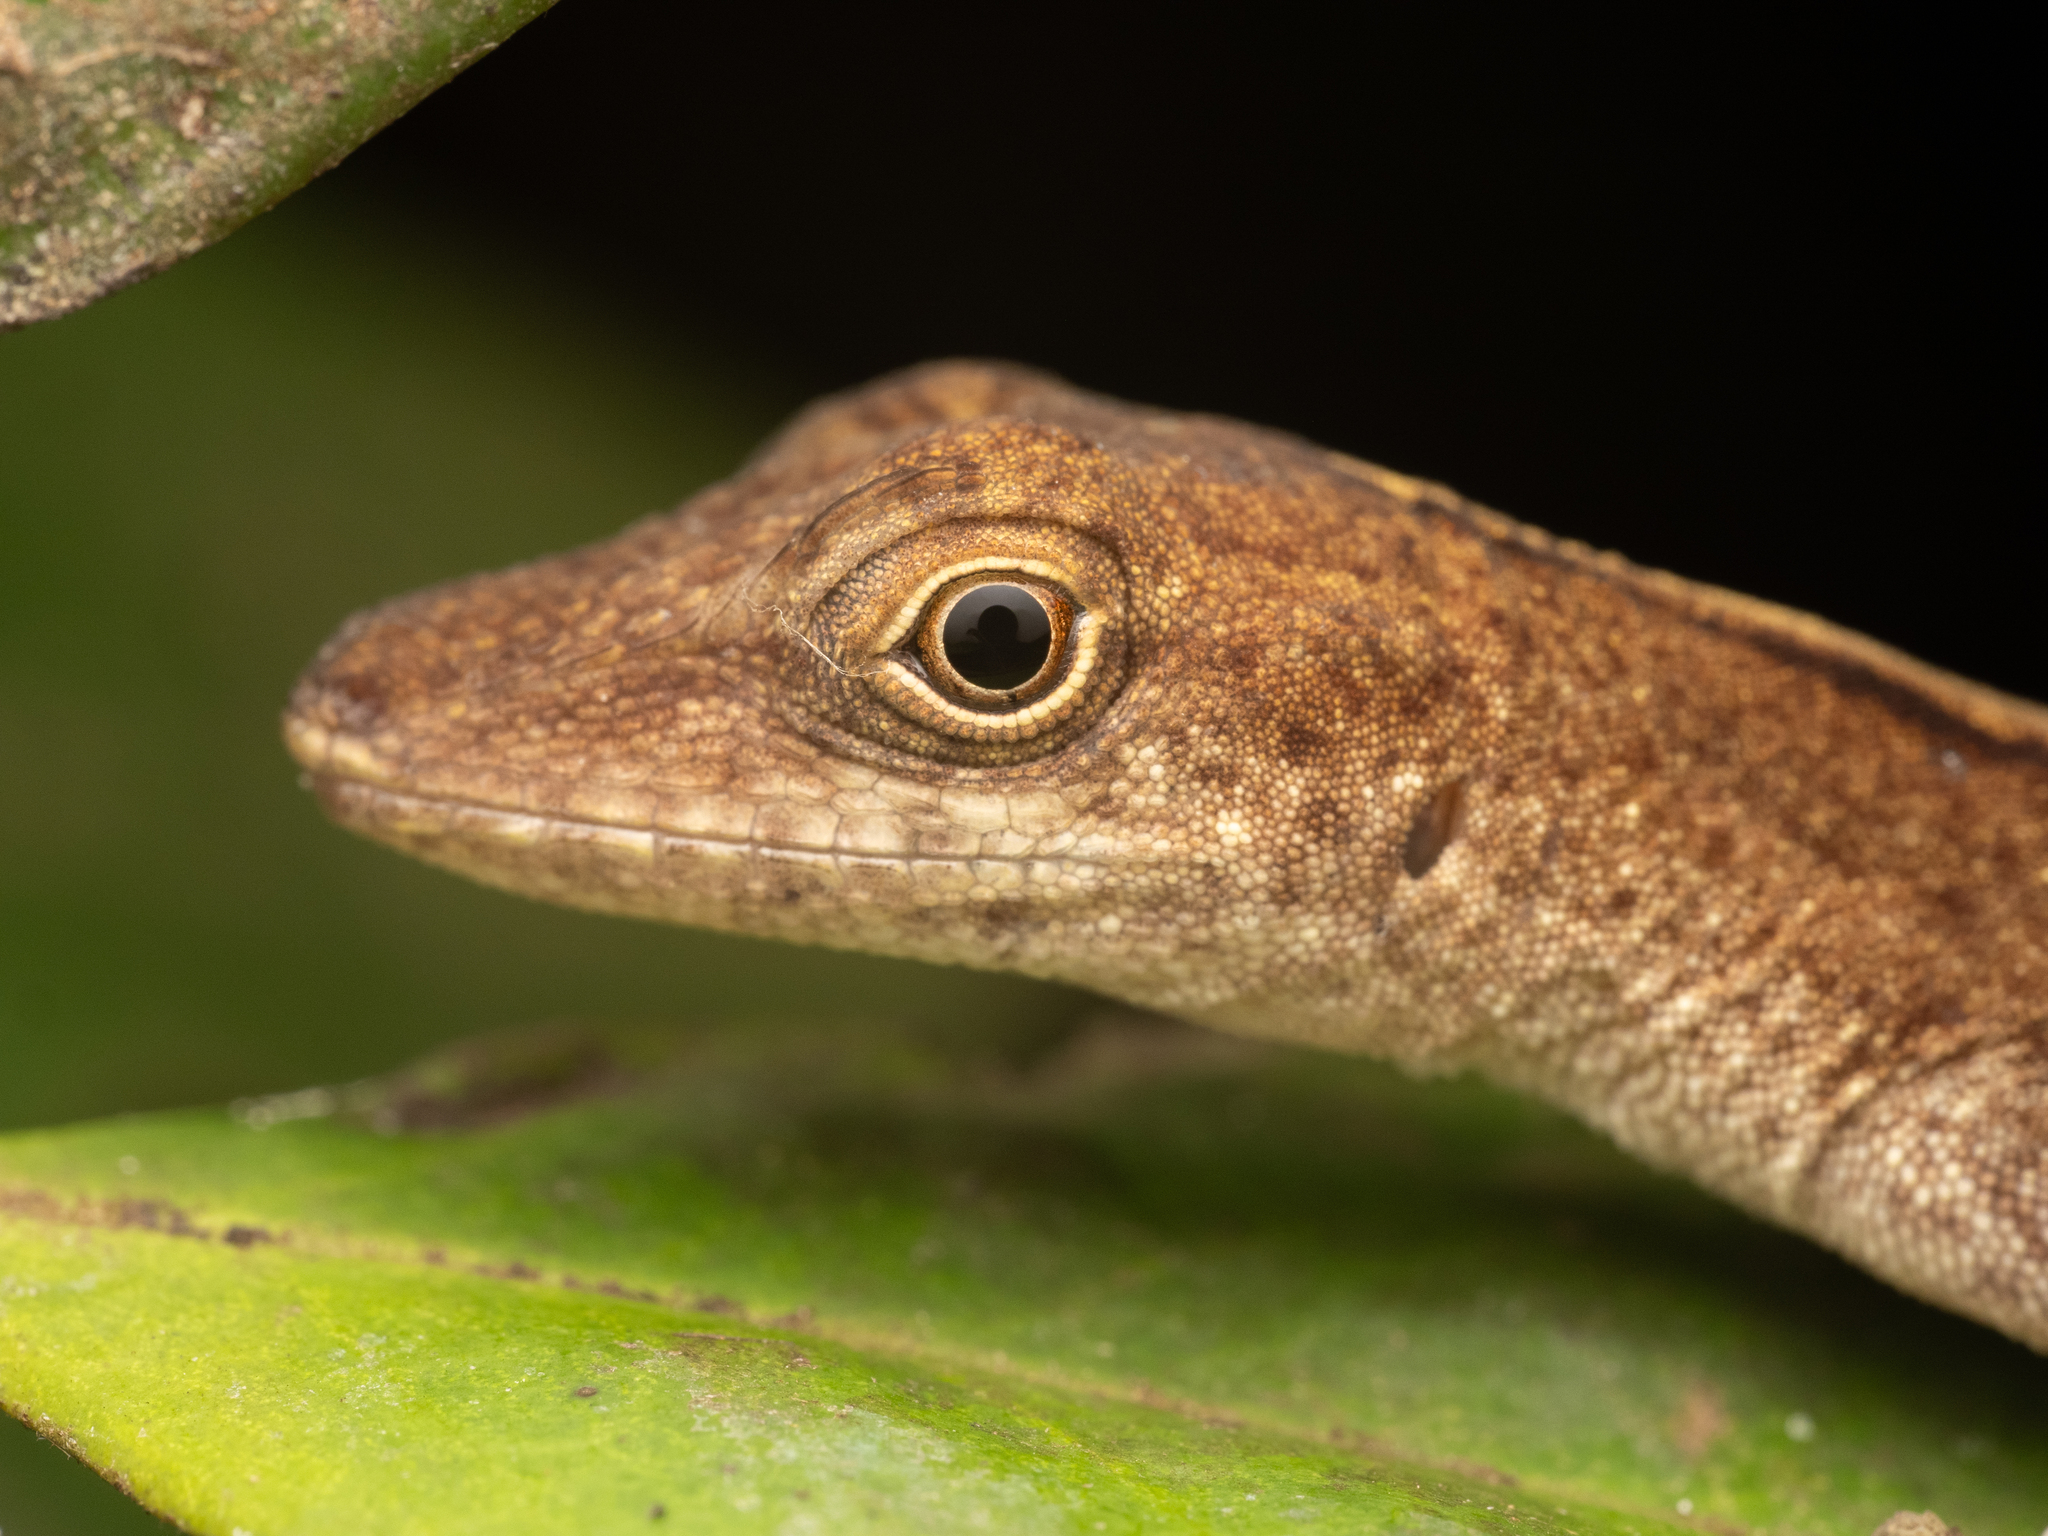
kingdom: Animalia
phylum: Chordata
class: Squamata
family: Dactyloidae
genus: Anolis
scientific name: Anolis fuscoauratus
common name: Brown-eared anole
